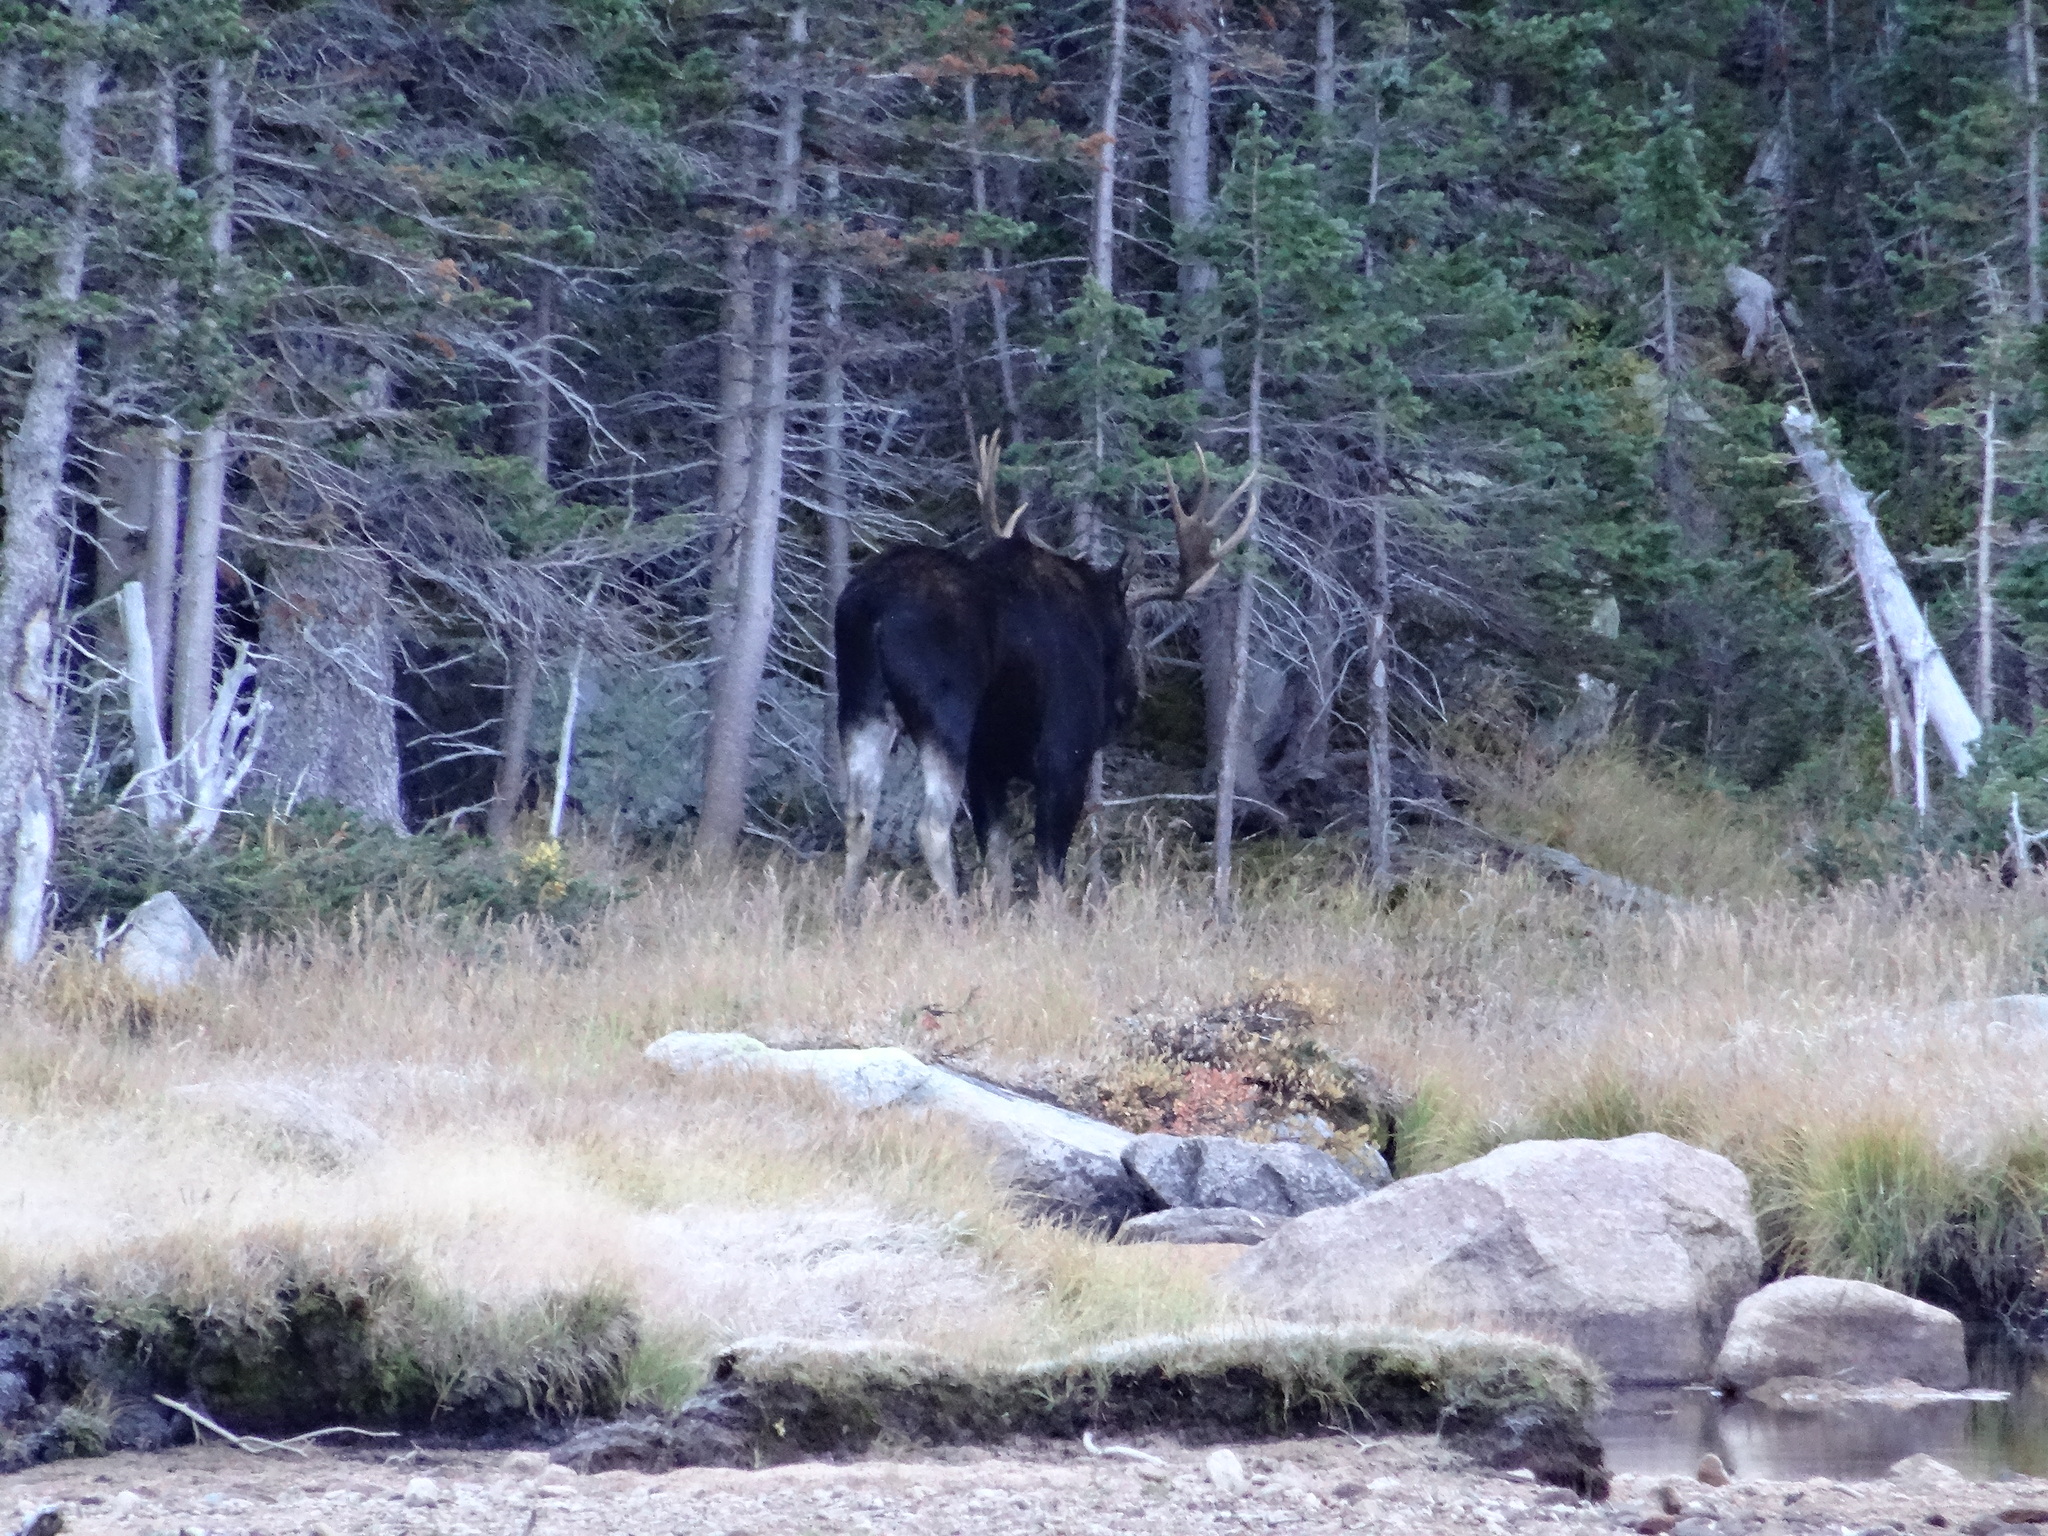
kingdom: Animalia
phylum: Chordata
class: Mammalia
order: Artiodactyla
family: Cervidae
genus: Alces
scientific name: Alces americanus
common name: Moose
